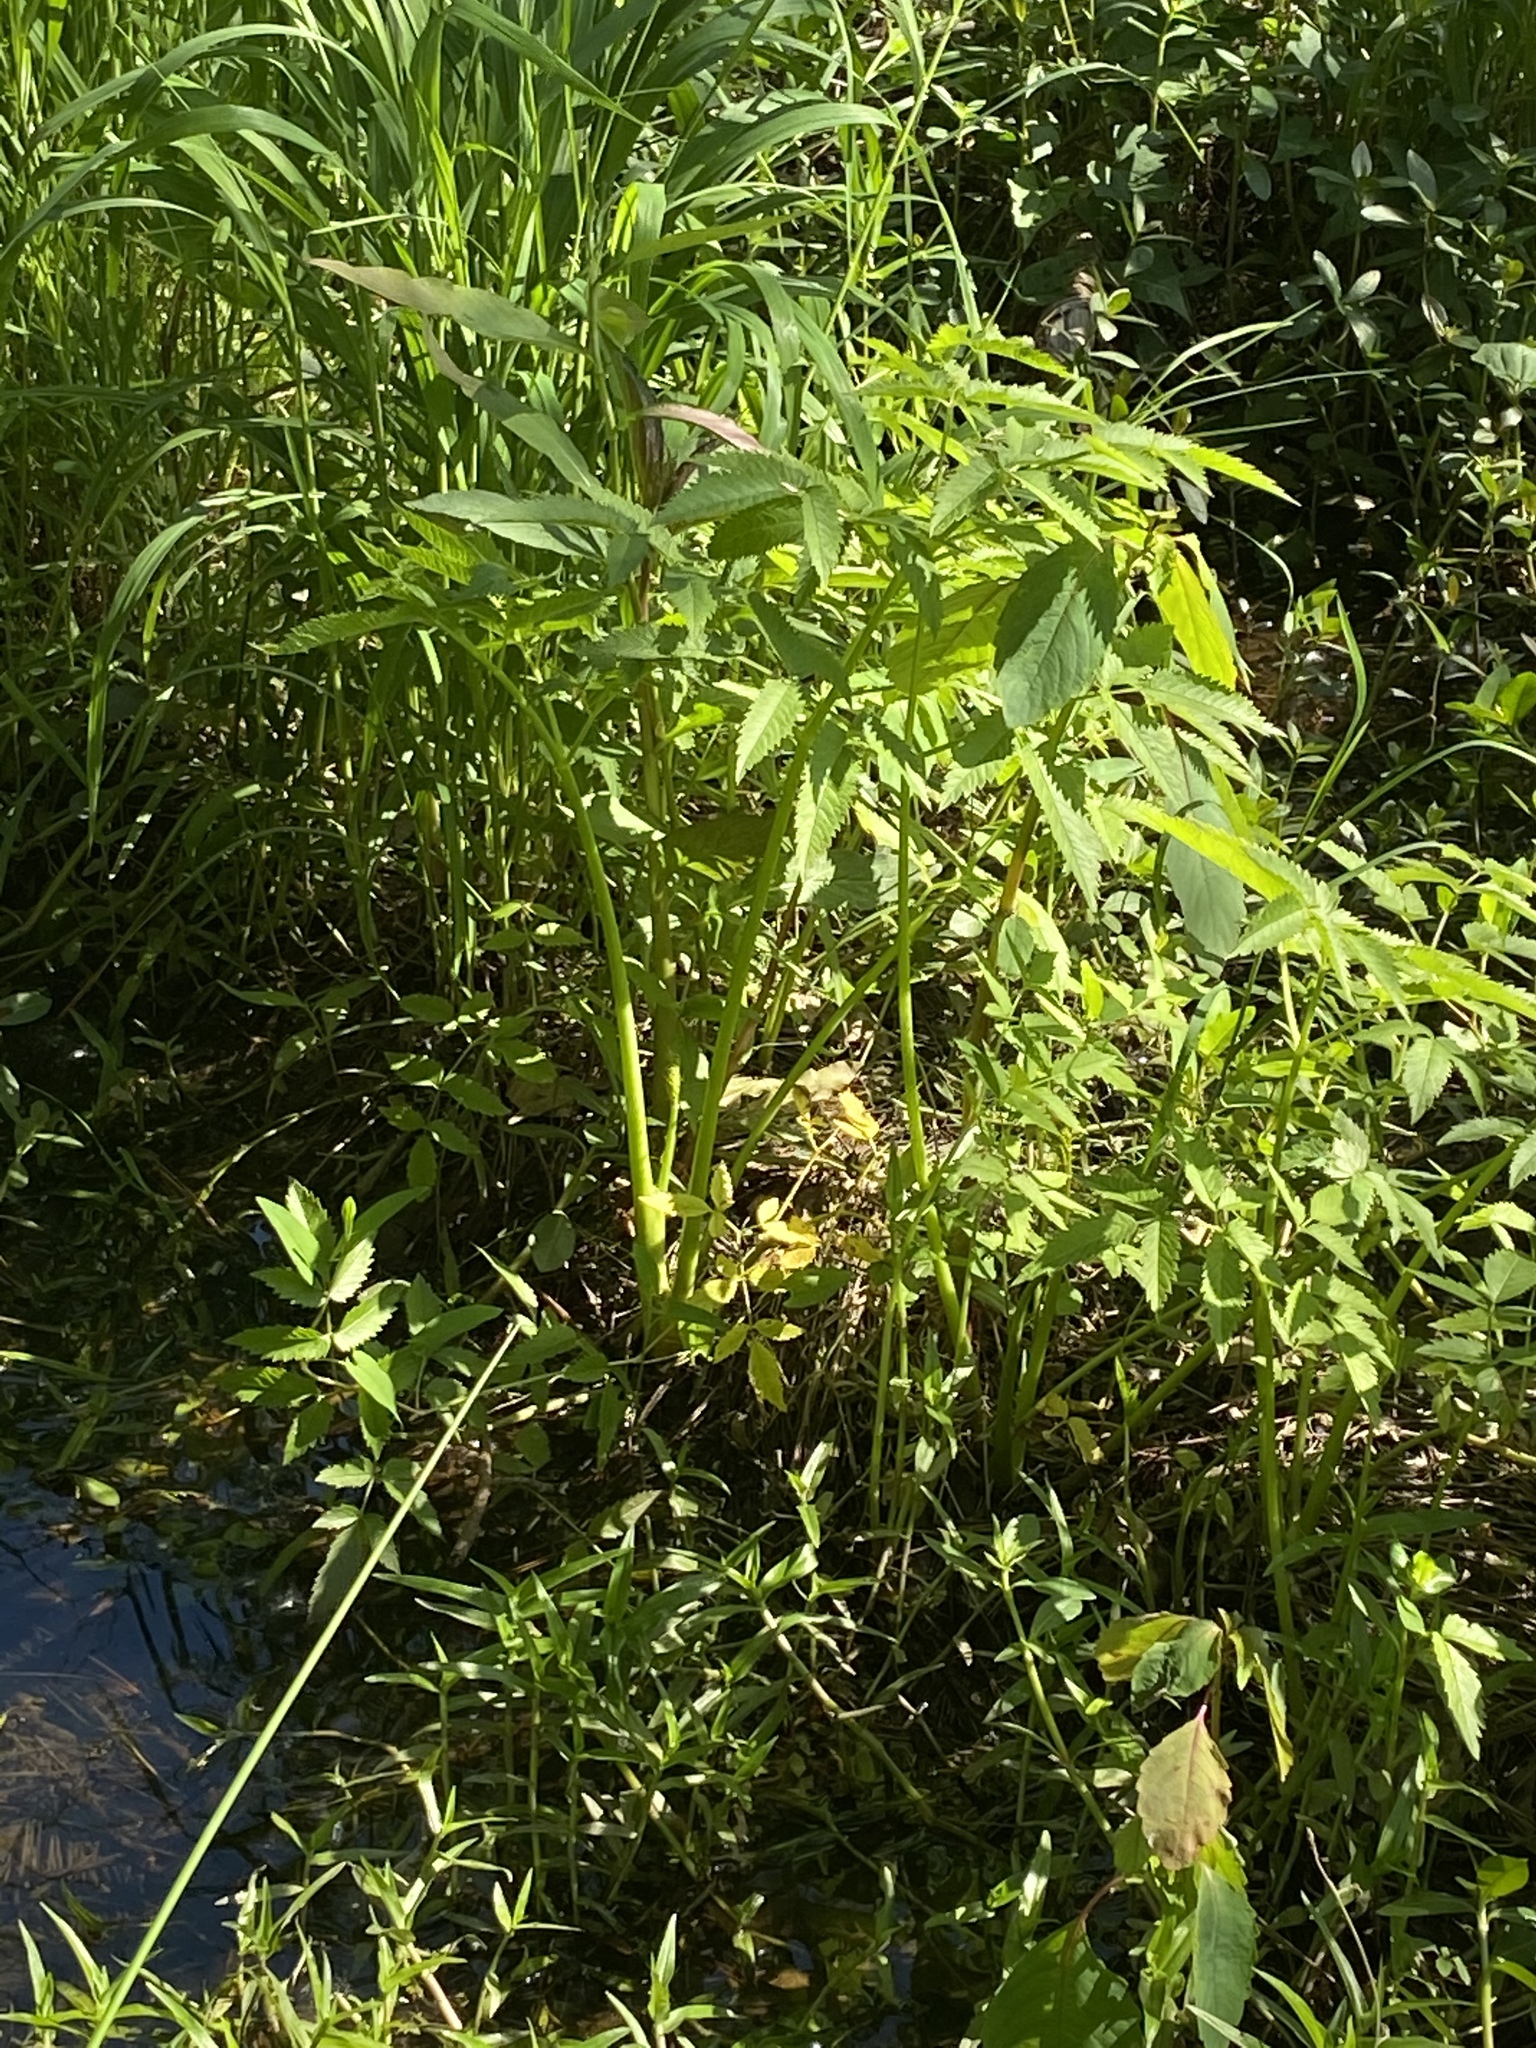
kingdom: Plantae
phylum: Tracheophyta
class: Magnoliopsida
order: Apiales
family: Apiaceae
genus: Cicuta
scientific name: Cicuta maculata
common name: Spotted cowbane
